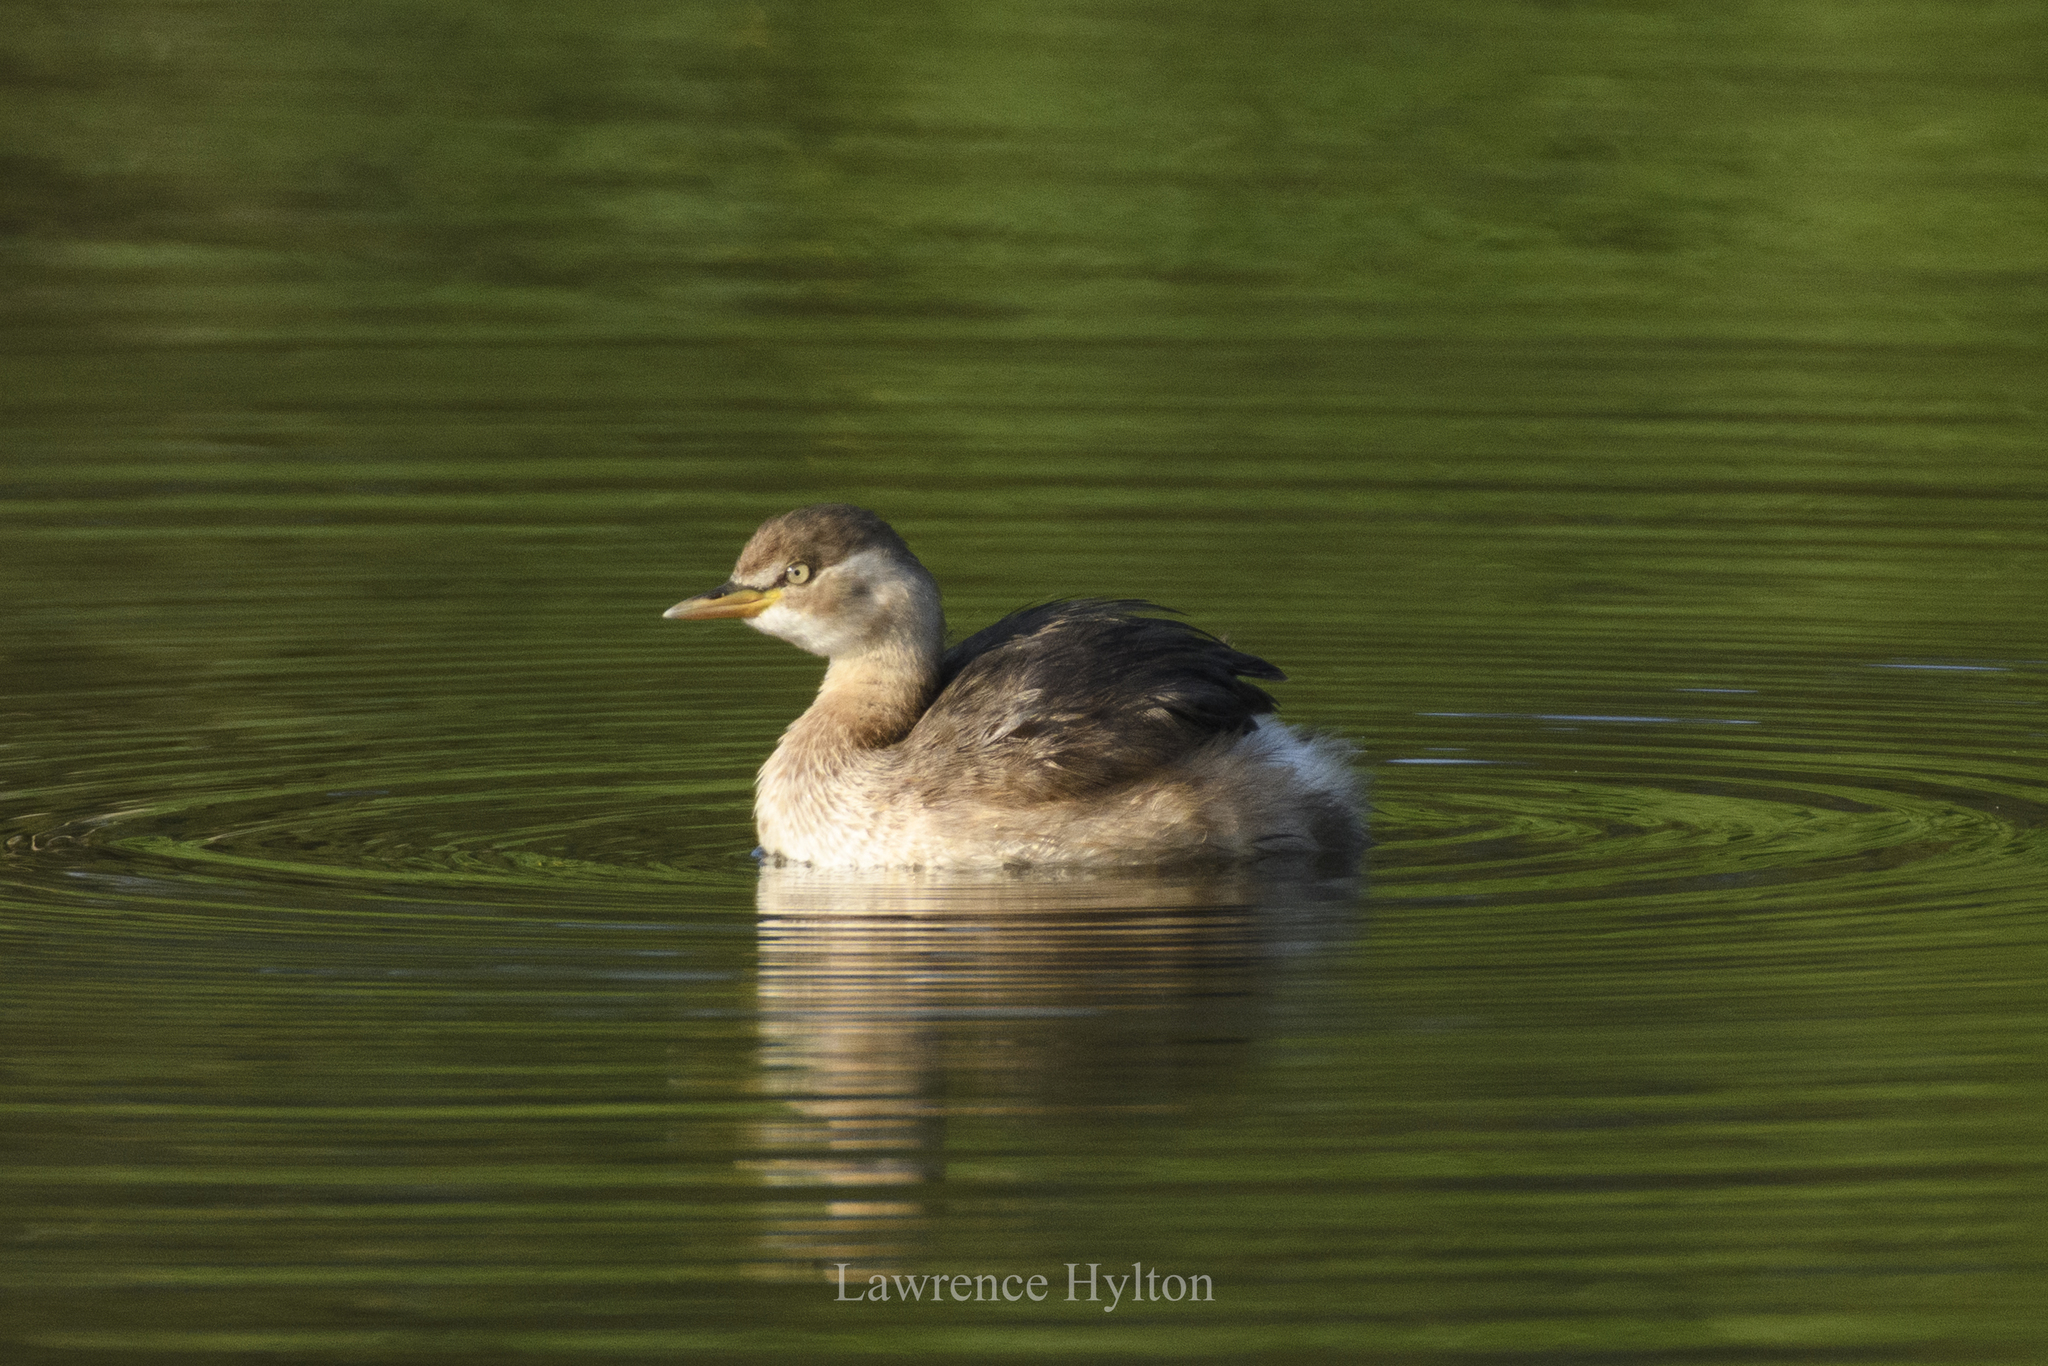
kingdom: Animalia
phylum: Chordata
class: Aves
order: Podicipediformes
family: Podicipedidae
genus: Tachybaptus
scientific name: Tachybaptus ruficollis
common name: Little grebe
